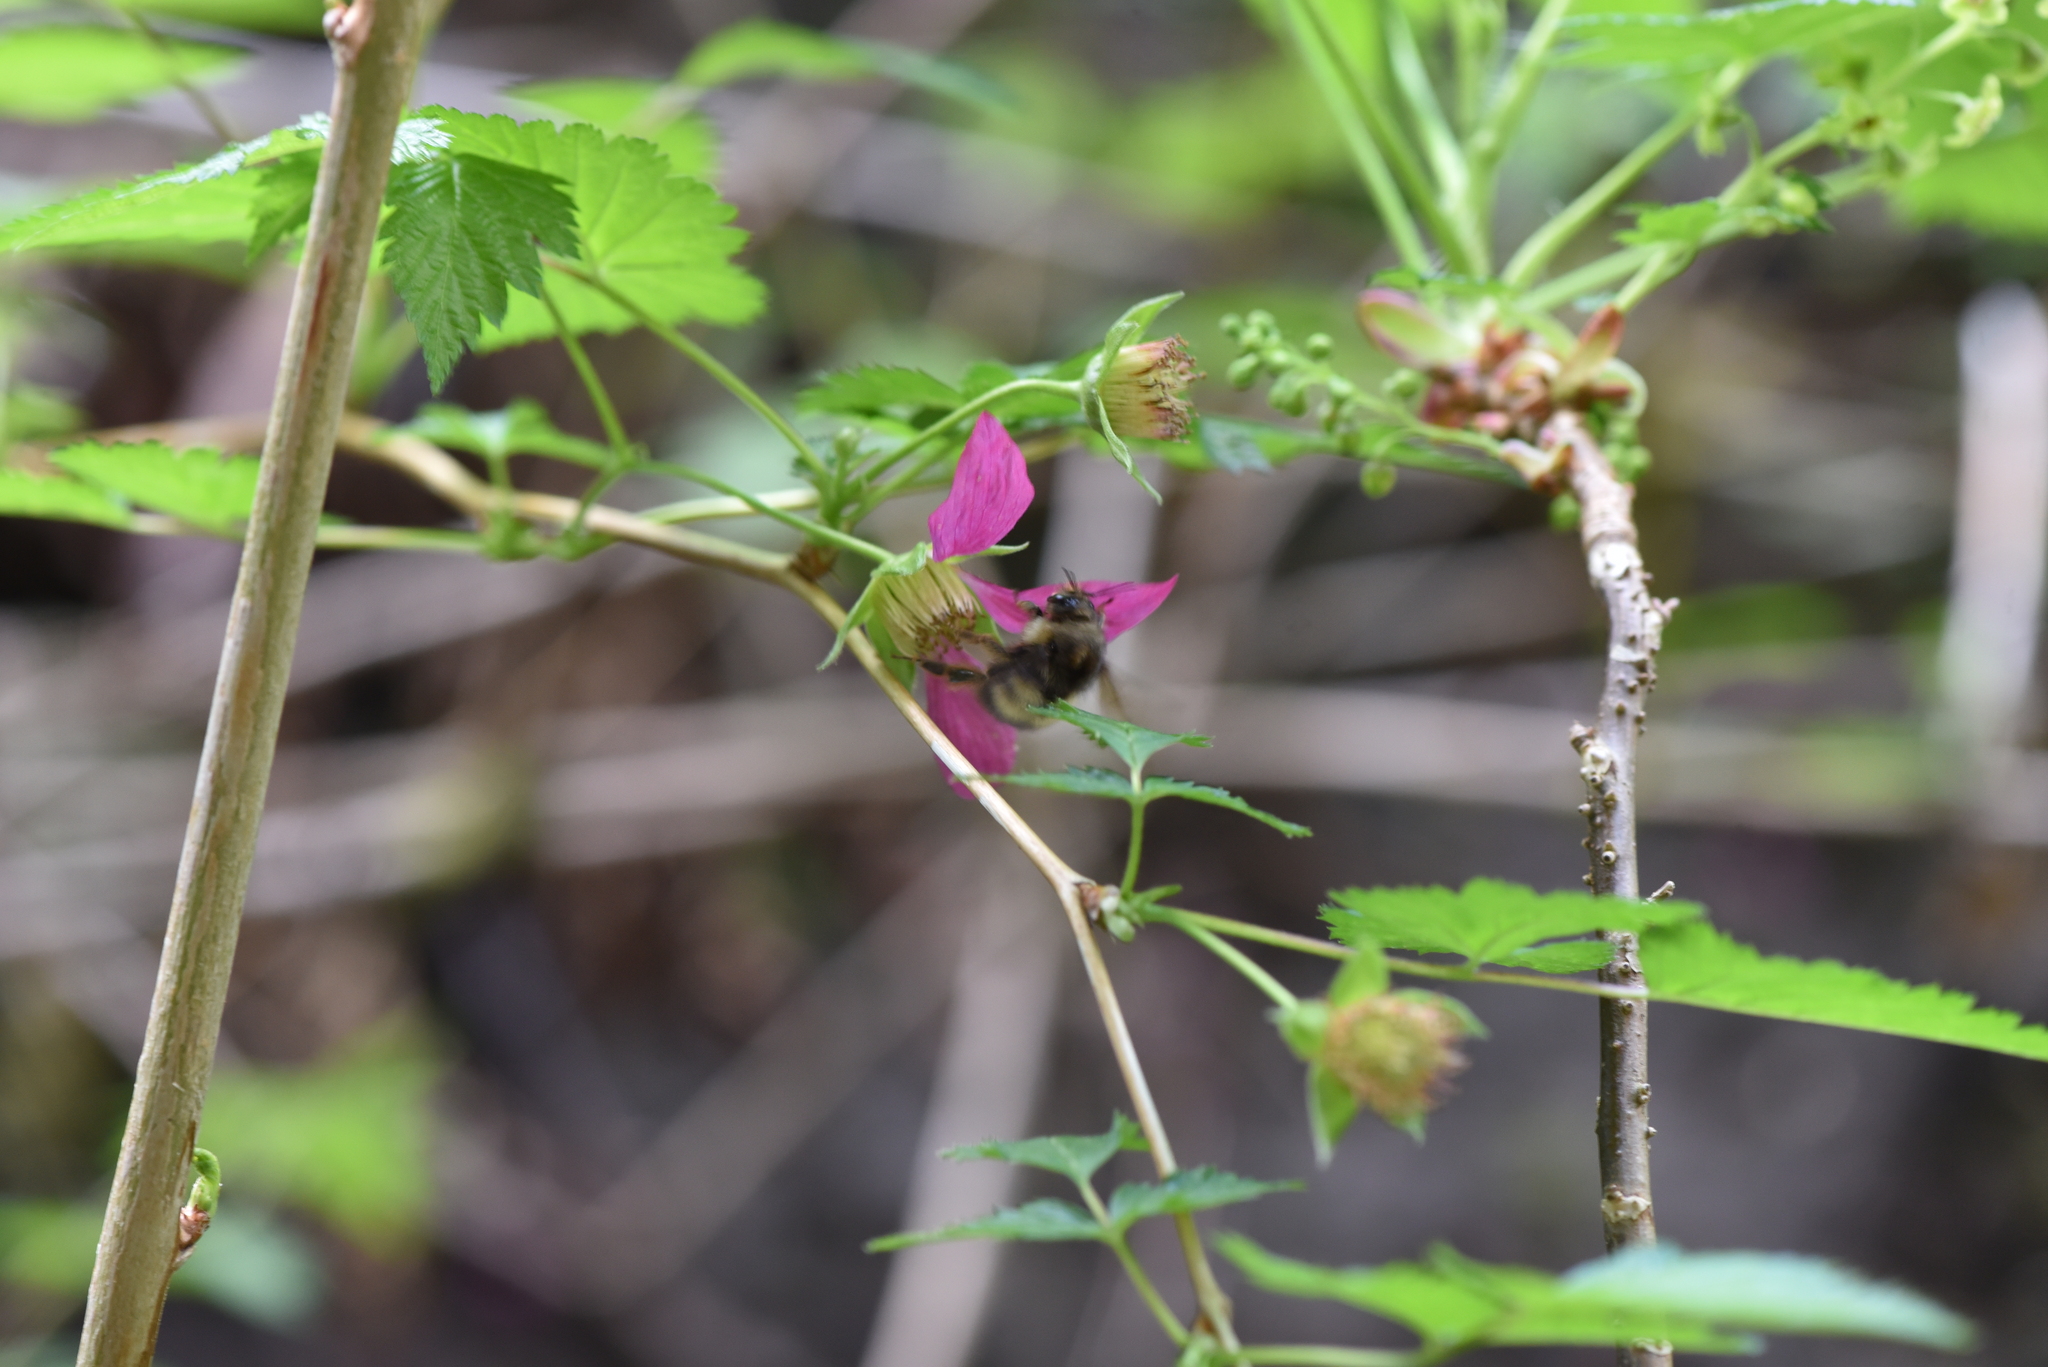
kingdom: Animalia
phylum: Arthropoda
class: Insecta
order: Hymenoptera
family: Apidae
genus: Bombus
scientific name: Bombus sitkensis
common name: Sitka bumble bee
